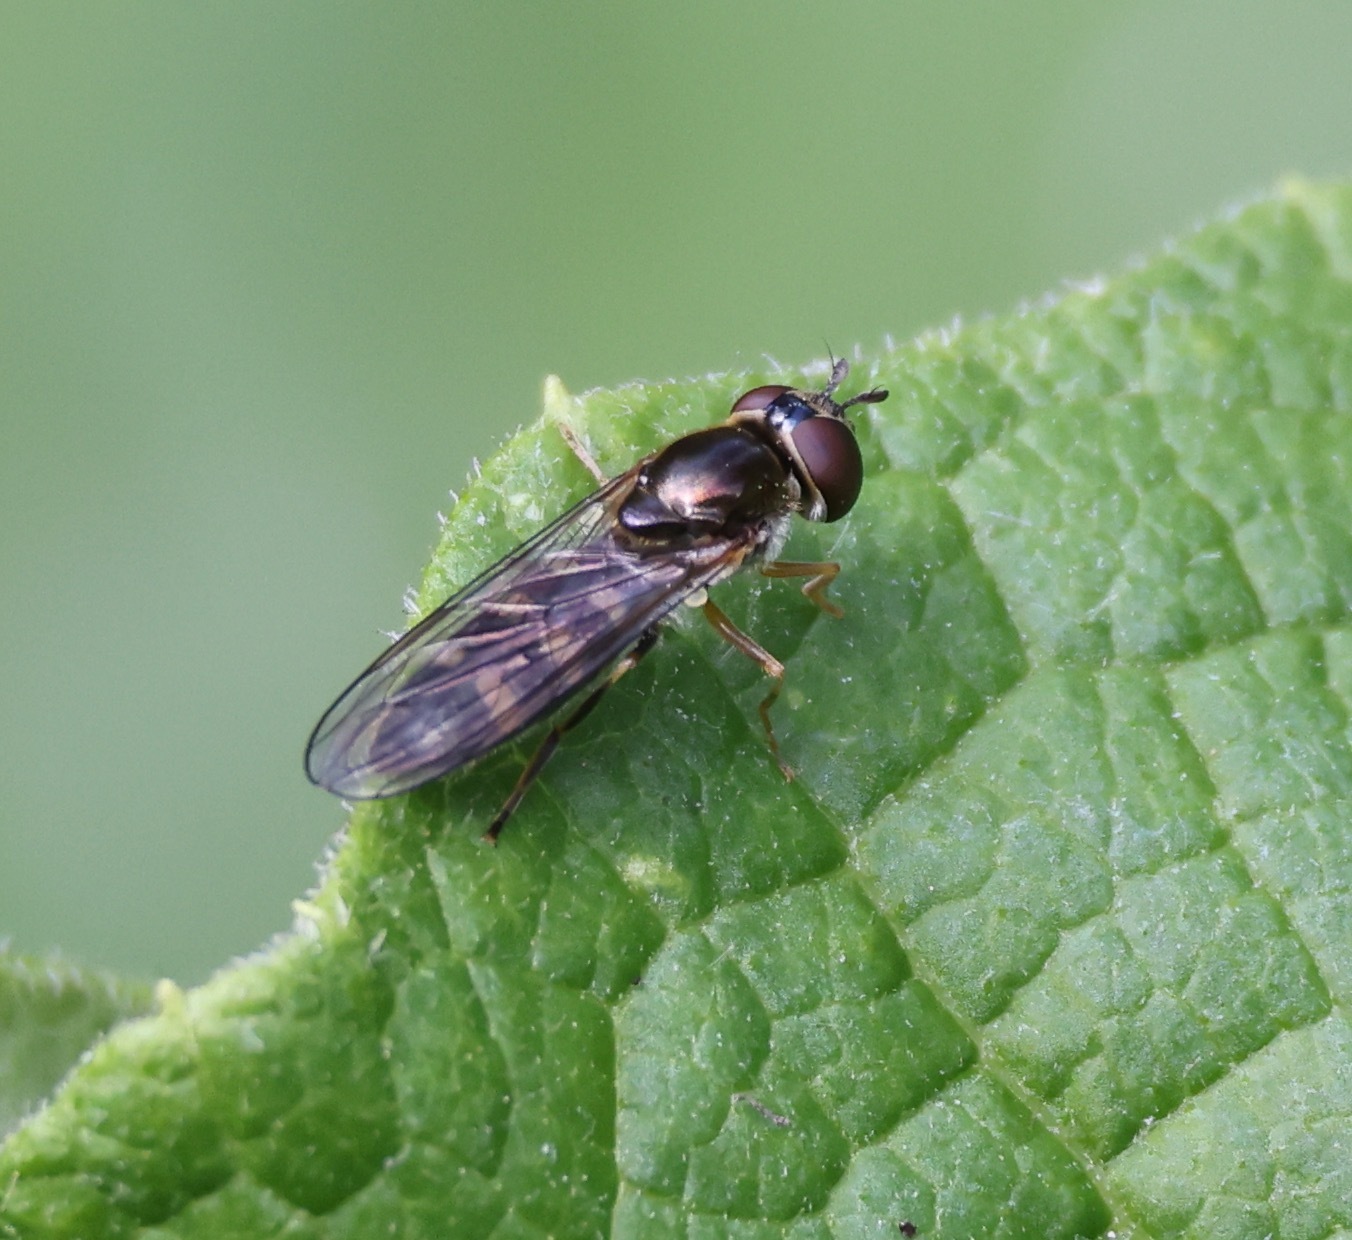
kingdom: Animalia
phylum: Arthropoda
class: Insecta
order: Diptera
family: Syrphidae
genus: Platycheirus
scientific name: Platycheirus
